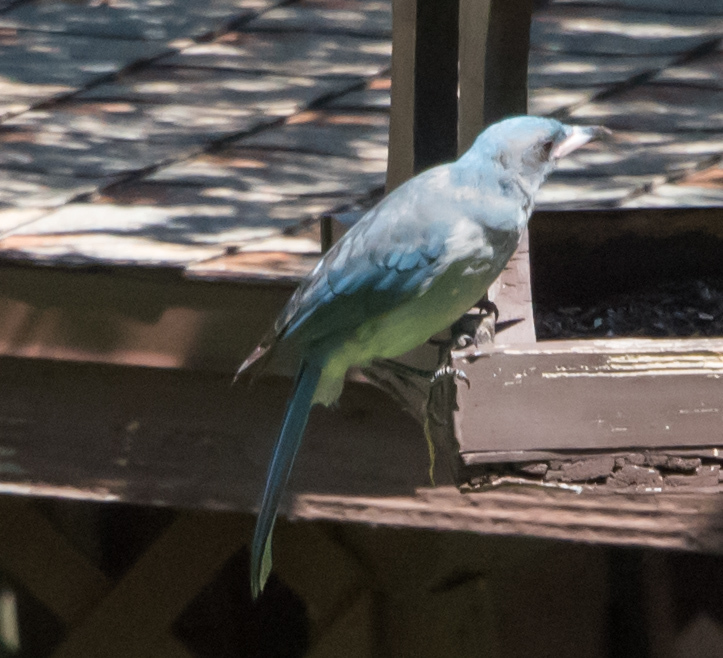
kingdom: Animalia
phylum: Chordata
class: Aves
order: Passeriformes
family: Corvidae
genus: Aphelocoma
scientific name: Aphelocoma wollweberi
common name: Mexican jay
